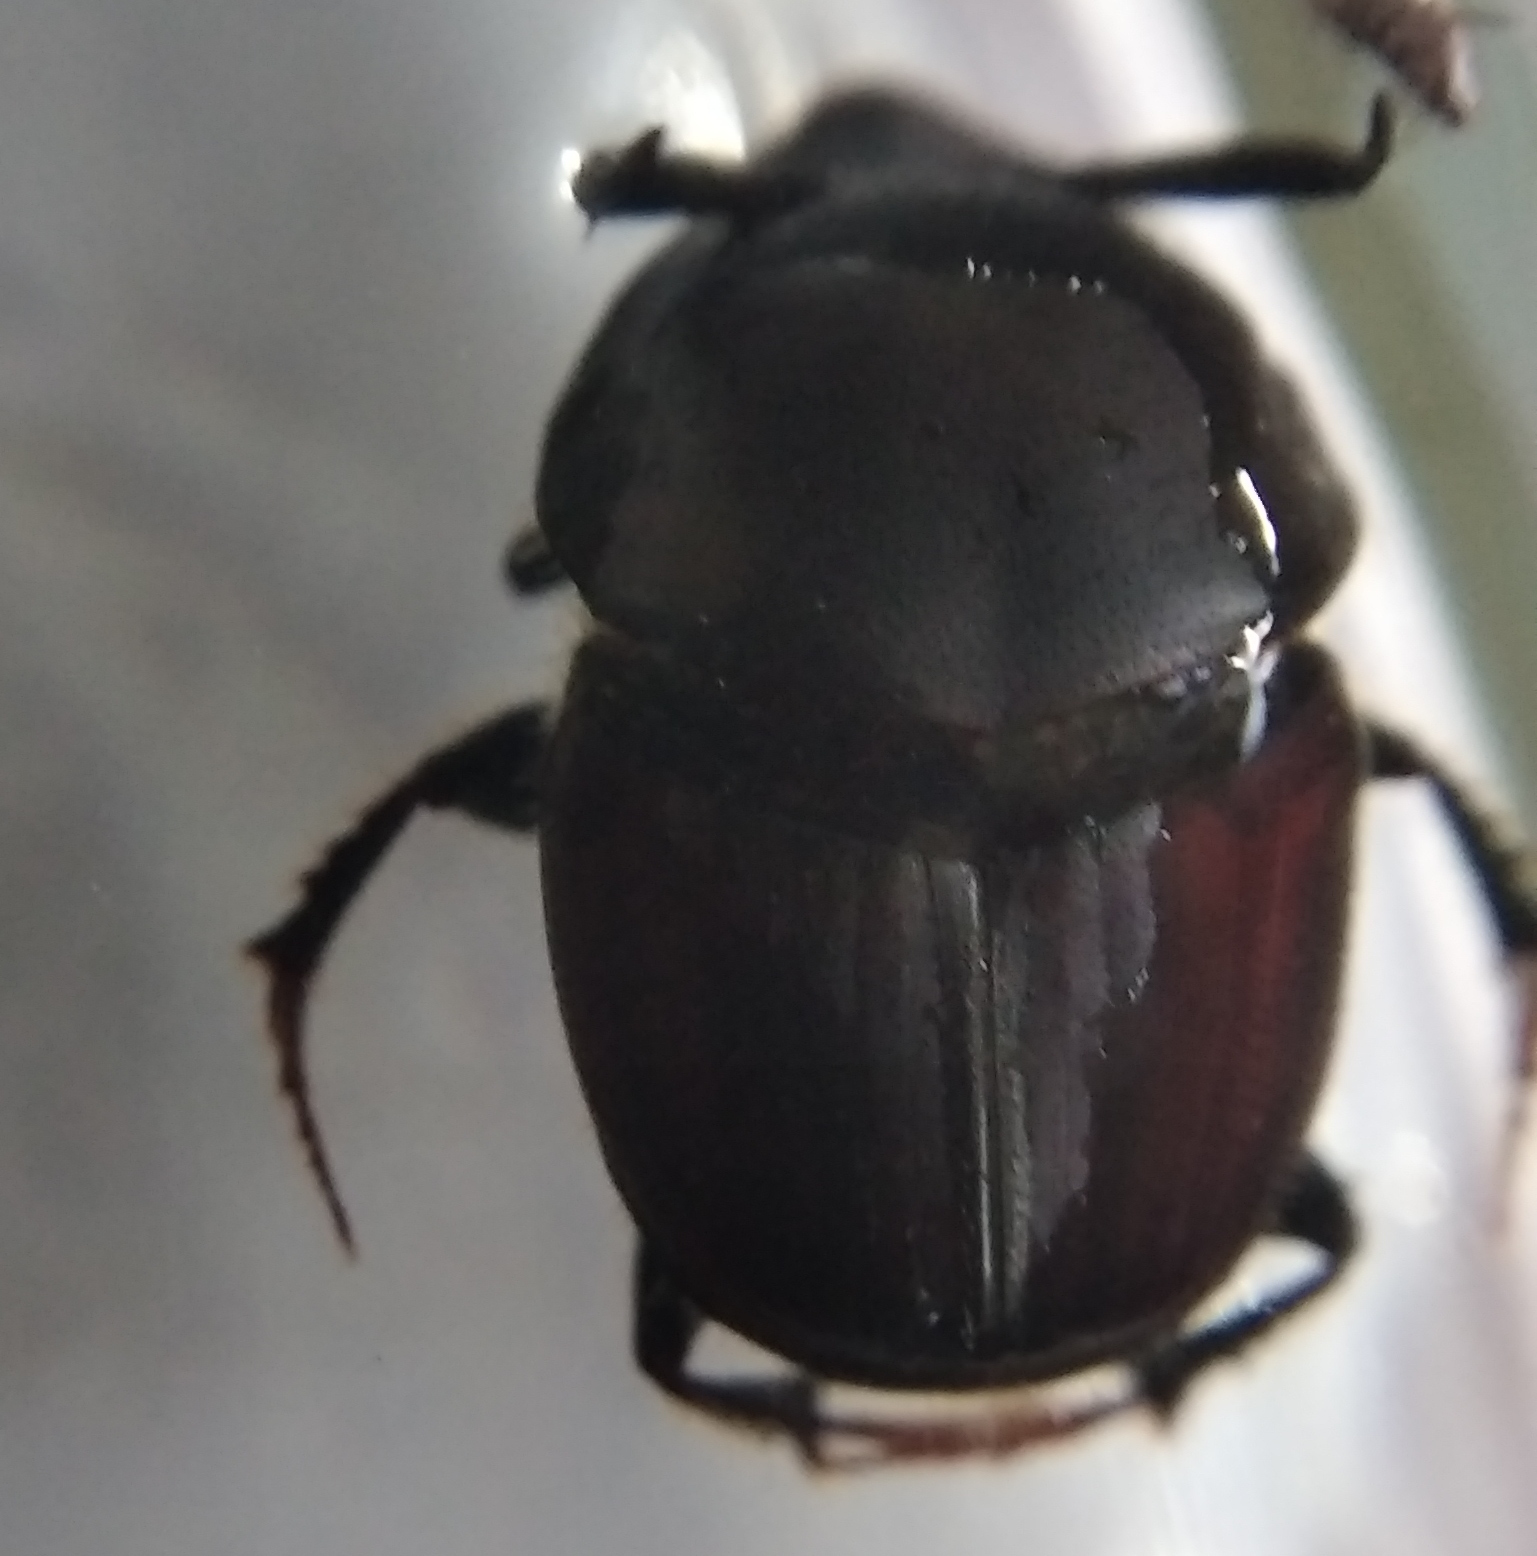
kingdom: Animalia
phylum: Arthropoda
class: Insecta
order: Coleoptera
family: Scarabaeidae
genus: Onthophagus
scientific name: Onthophagus taurus
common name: Bullhorned dung beetle
